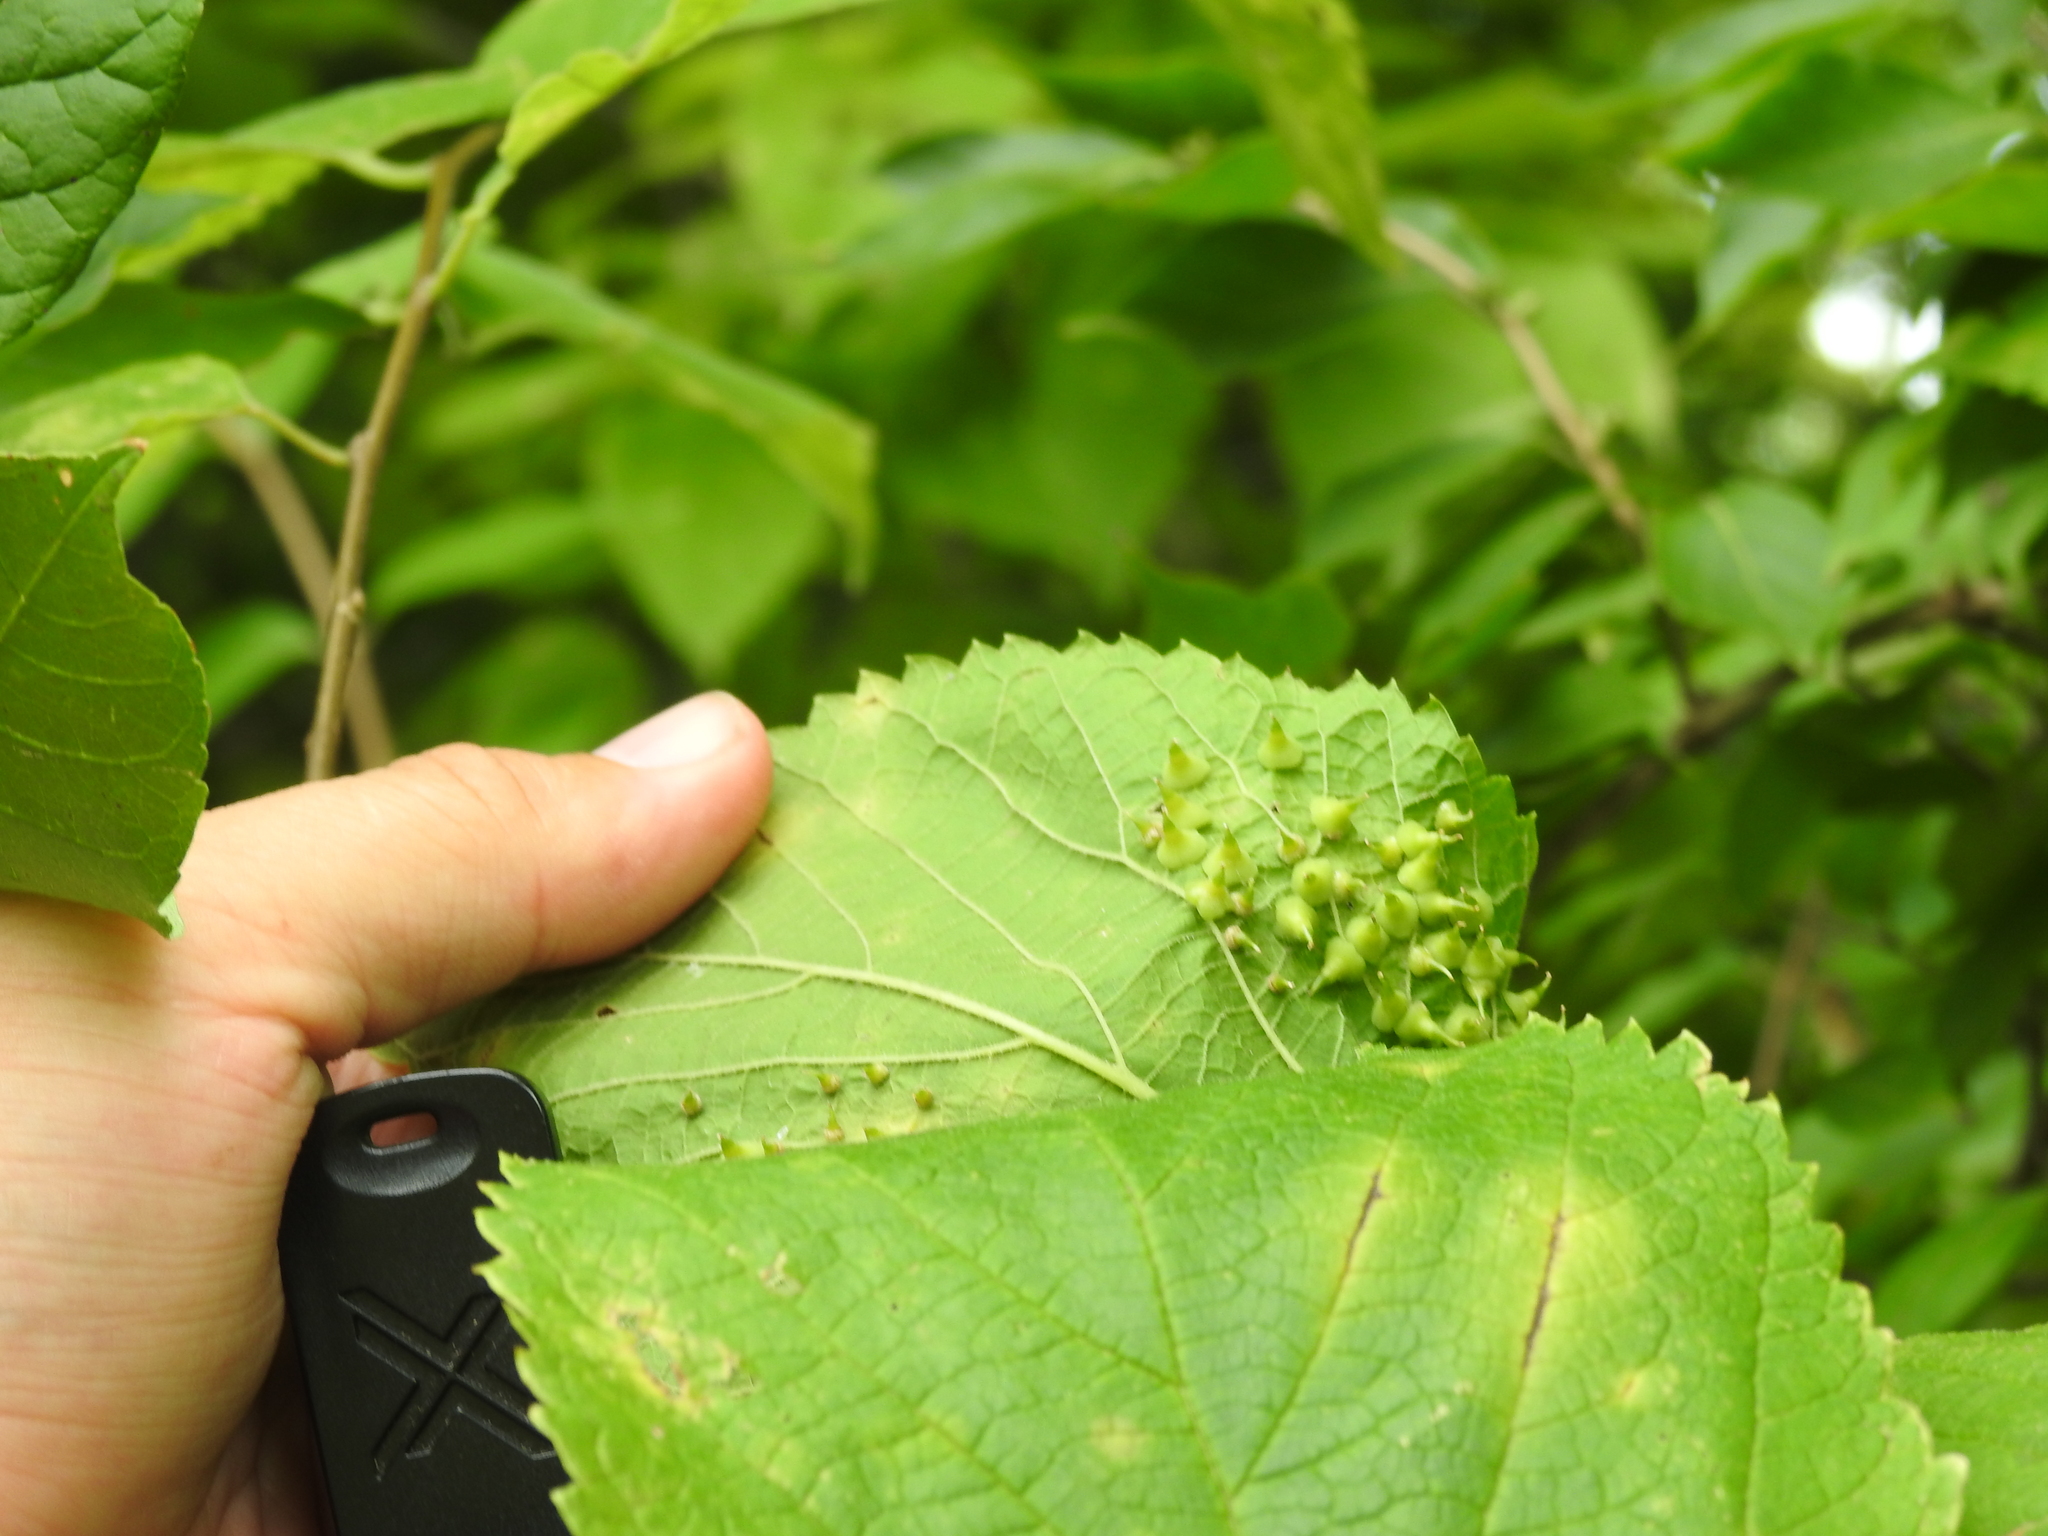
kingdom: Animalia
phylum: Arthropoda
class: Insecta
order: Diptera
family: Cecidomyiidae
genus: Celticecis
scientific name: Celticecis spiniformis
